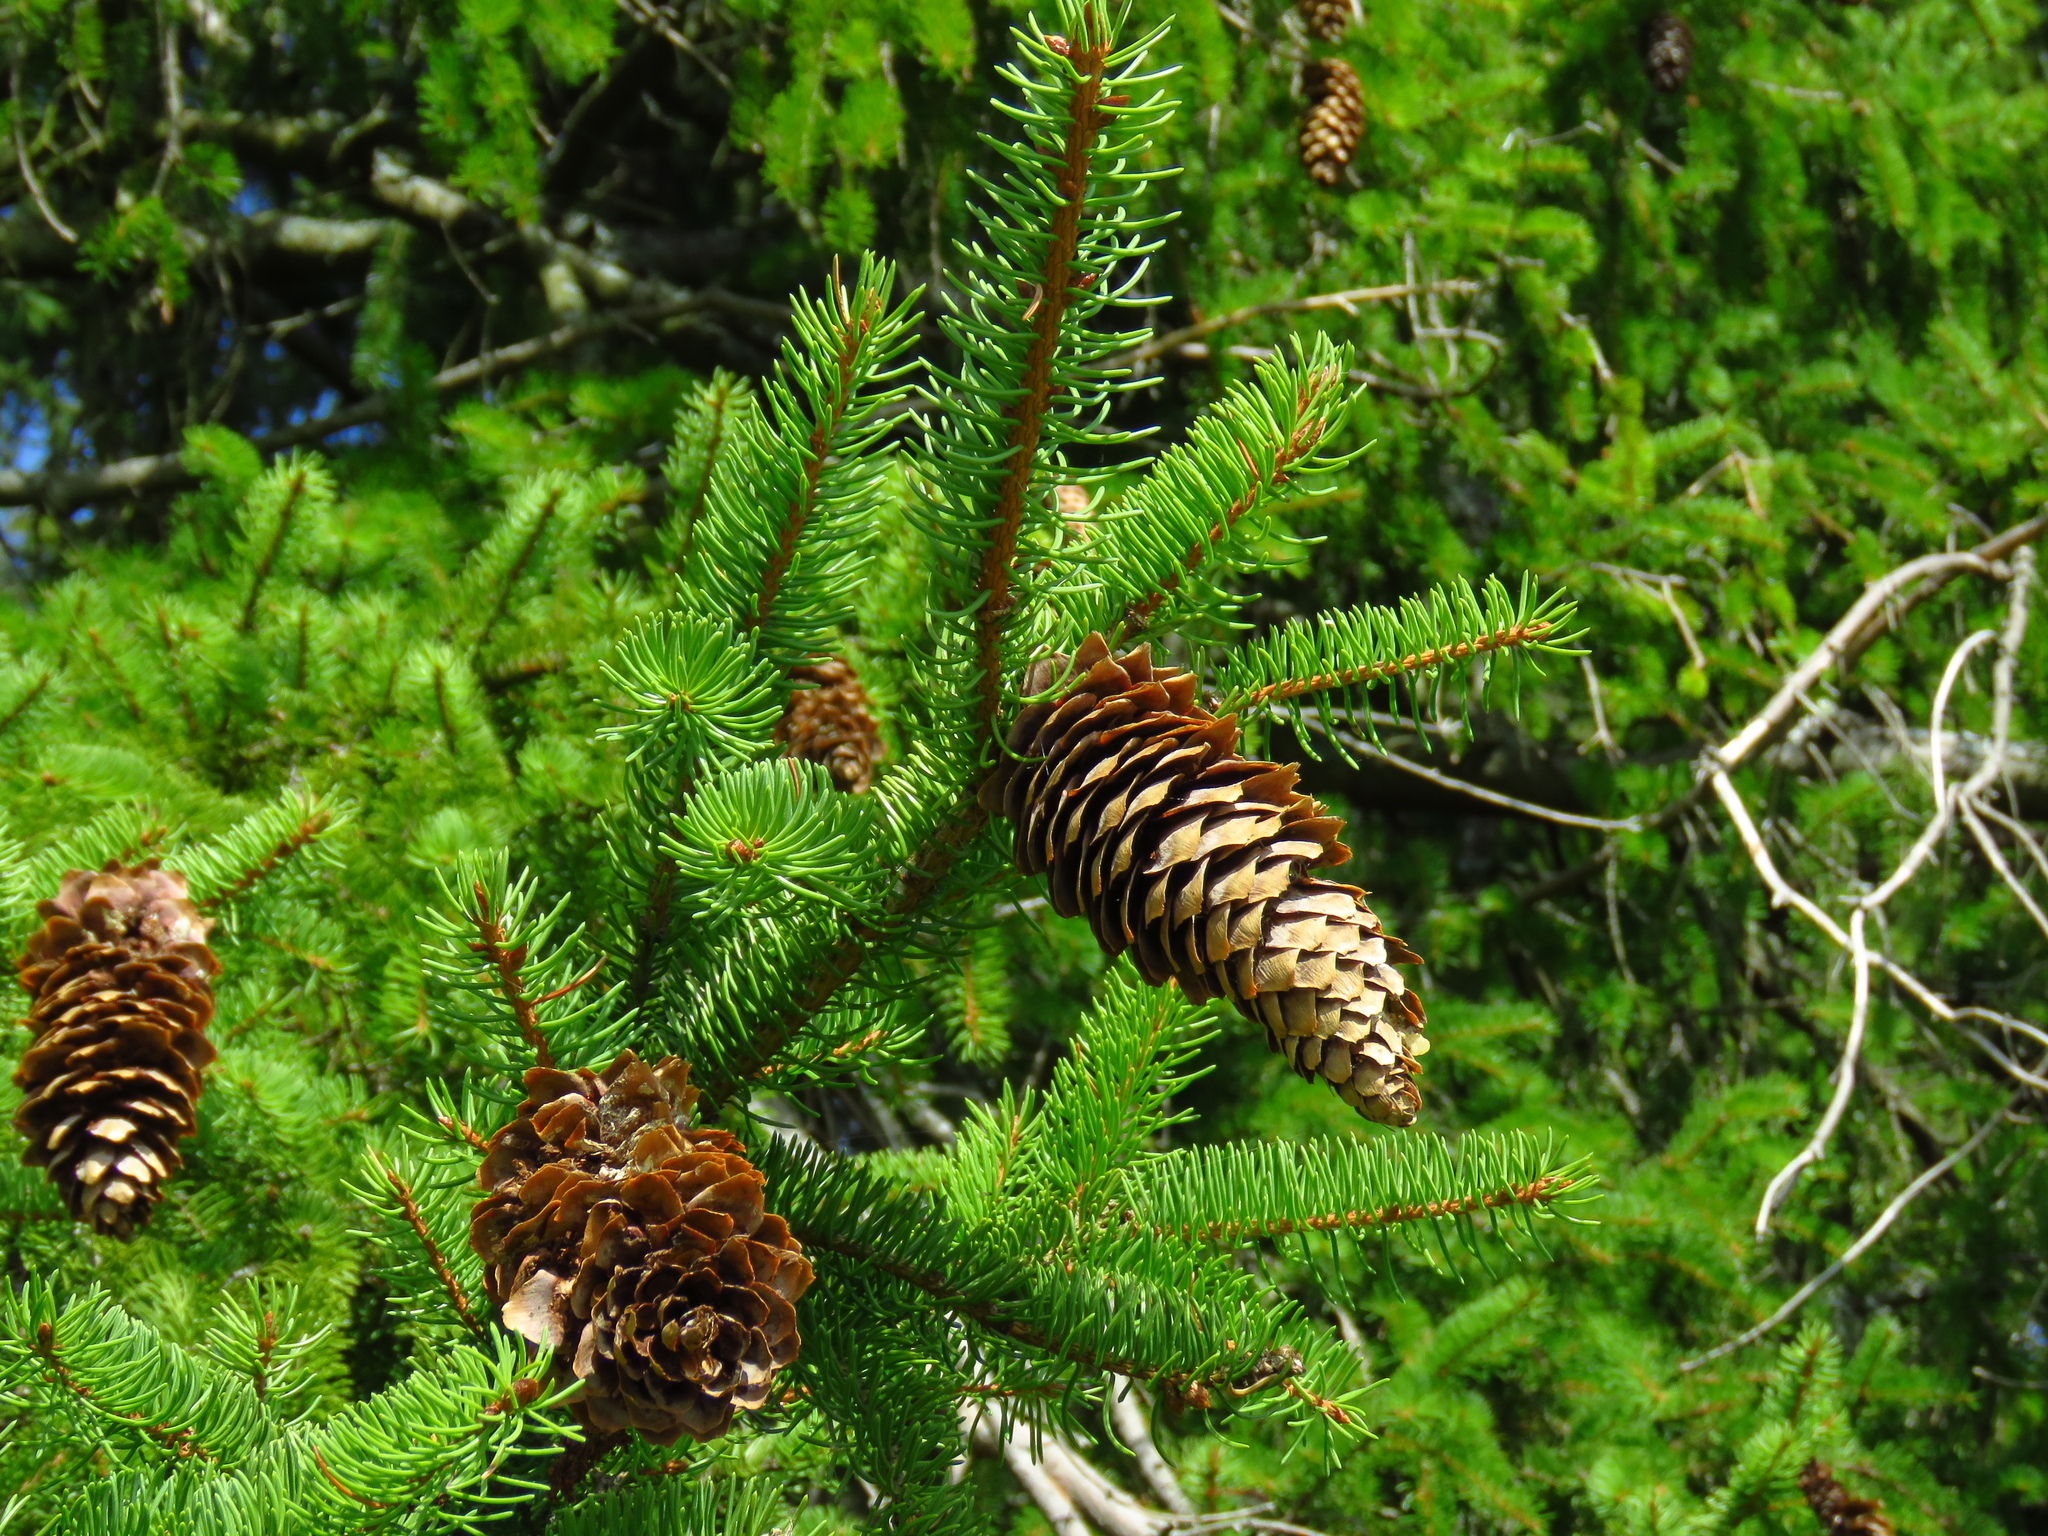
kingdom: Plantae
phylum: Tracheophyta
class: Pinopsida
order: Pinales
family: Pinaceae
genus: Picea
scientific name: Picea abies
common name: Norway spruce
